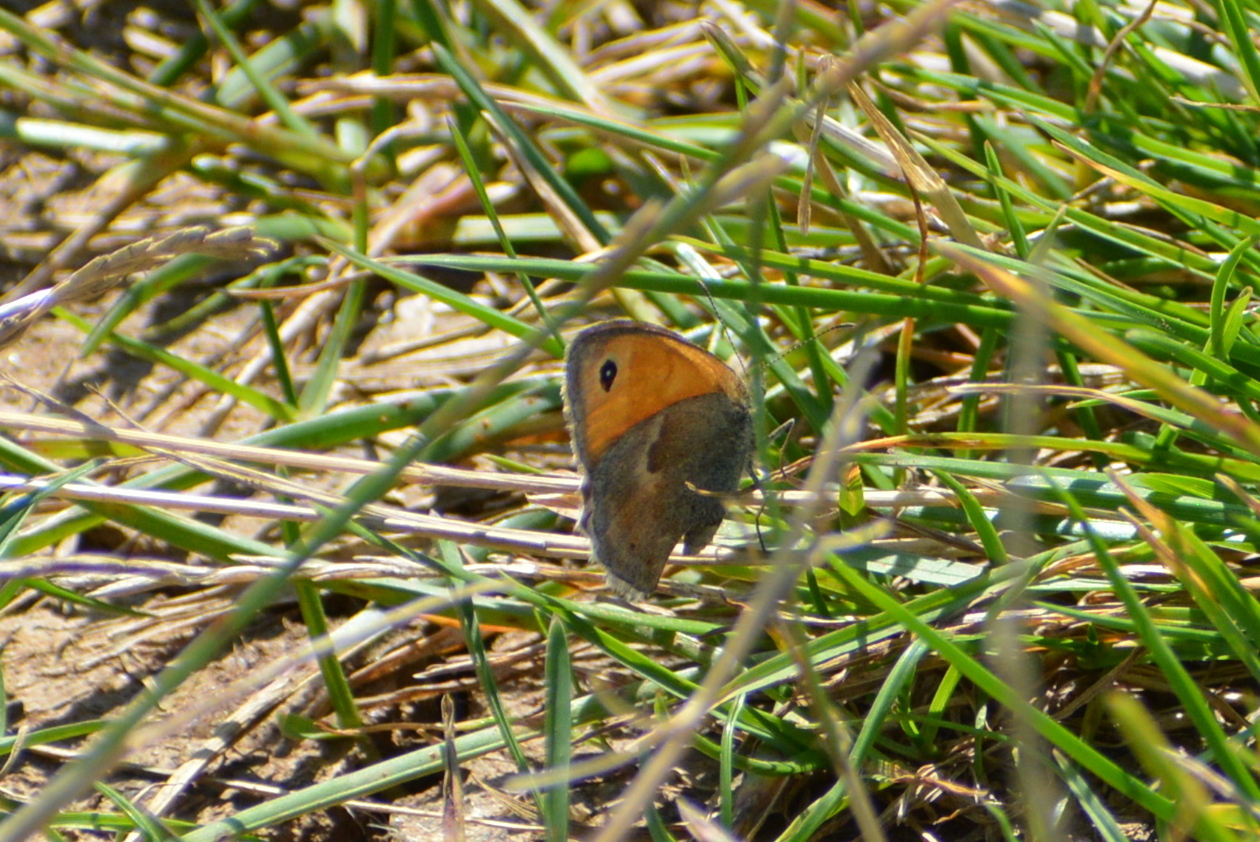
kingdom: Animalia
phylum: Arthropoda
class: Insecta
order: Lepidoptera
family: Nymphalidae
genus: Coenonympha
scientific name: Coenonympha pamphilus
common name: Small heath
